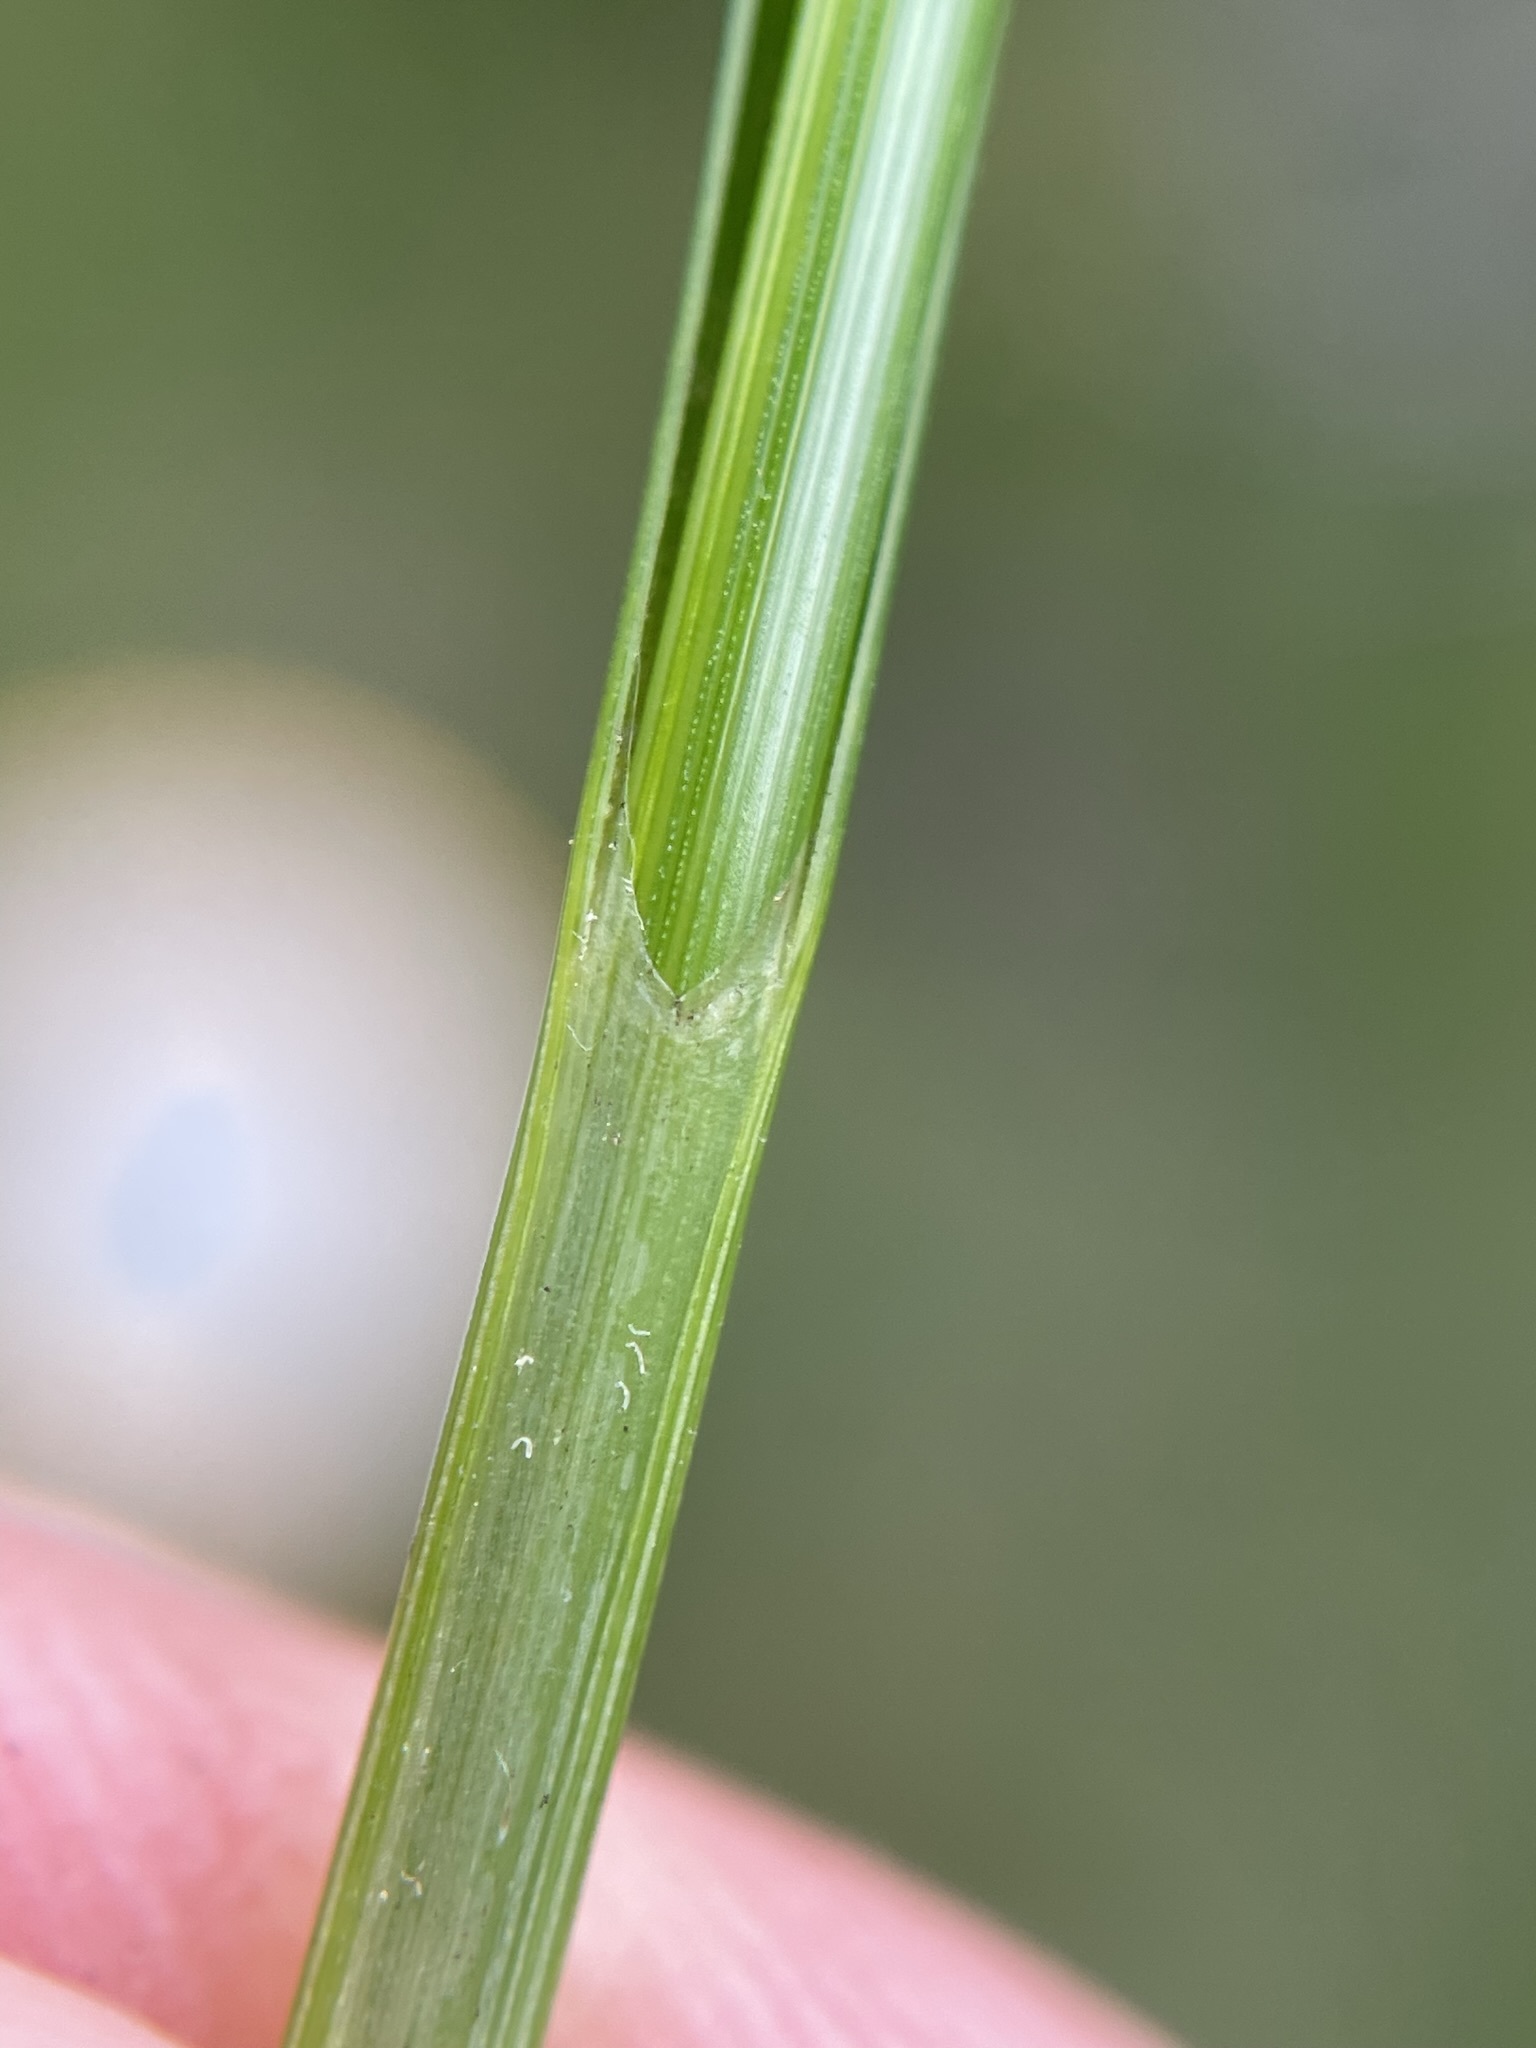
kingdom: Plantae
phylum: Tracheophyta
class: Liliopsida
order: Poales
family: Cyperaceae
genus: Carex
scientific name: Carex pellita
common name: Woolly sedge
